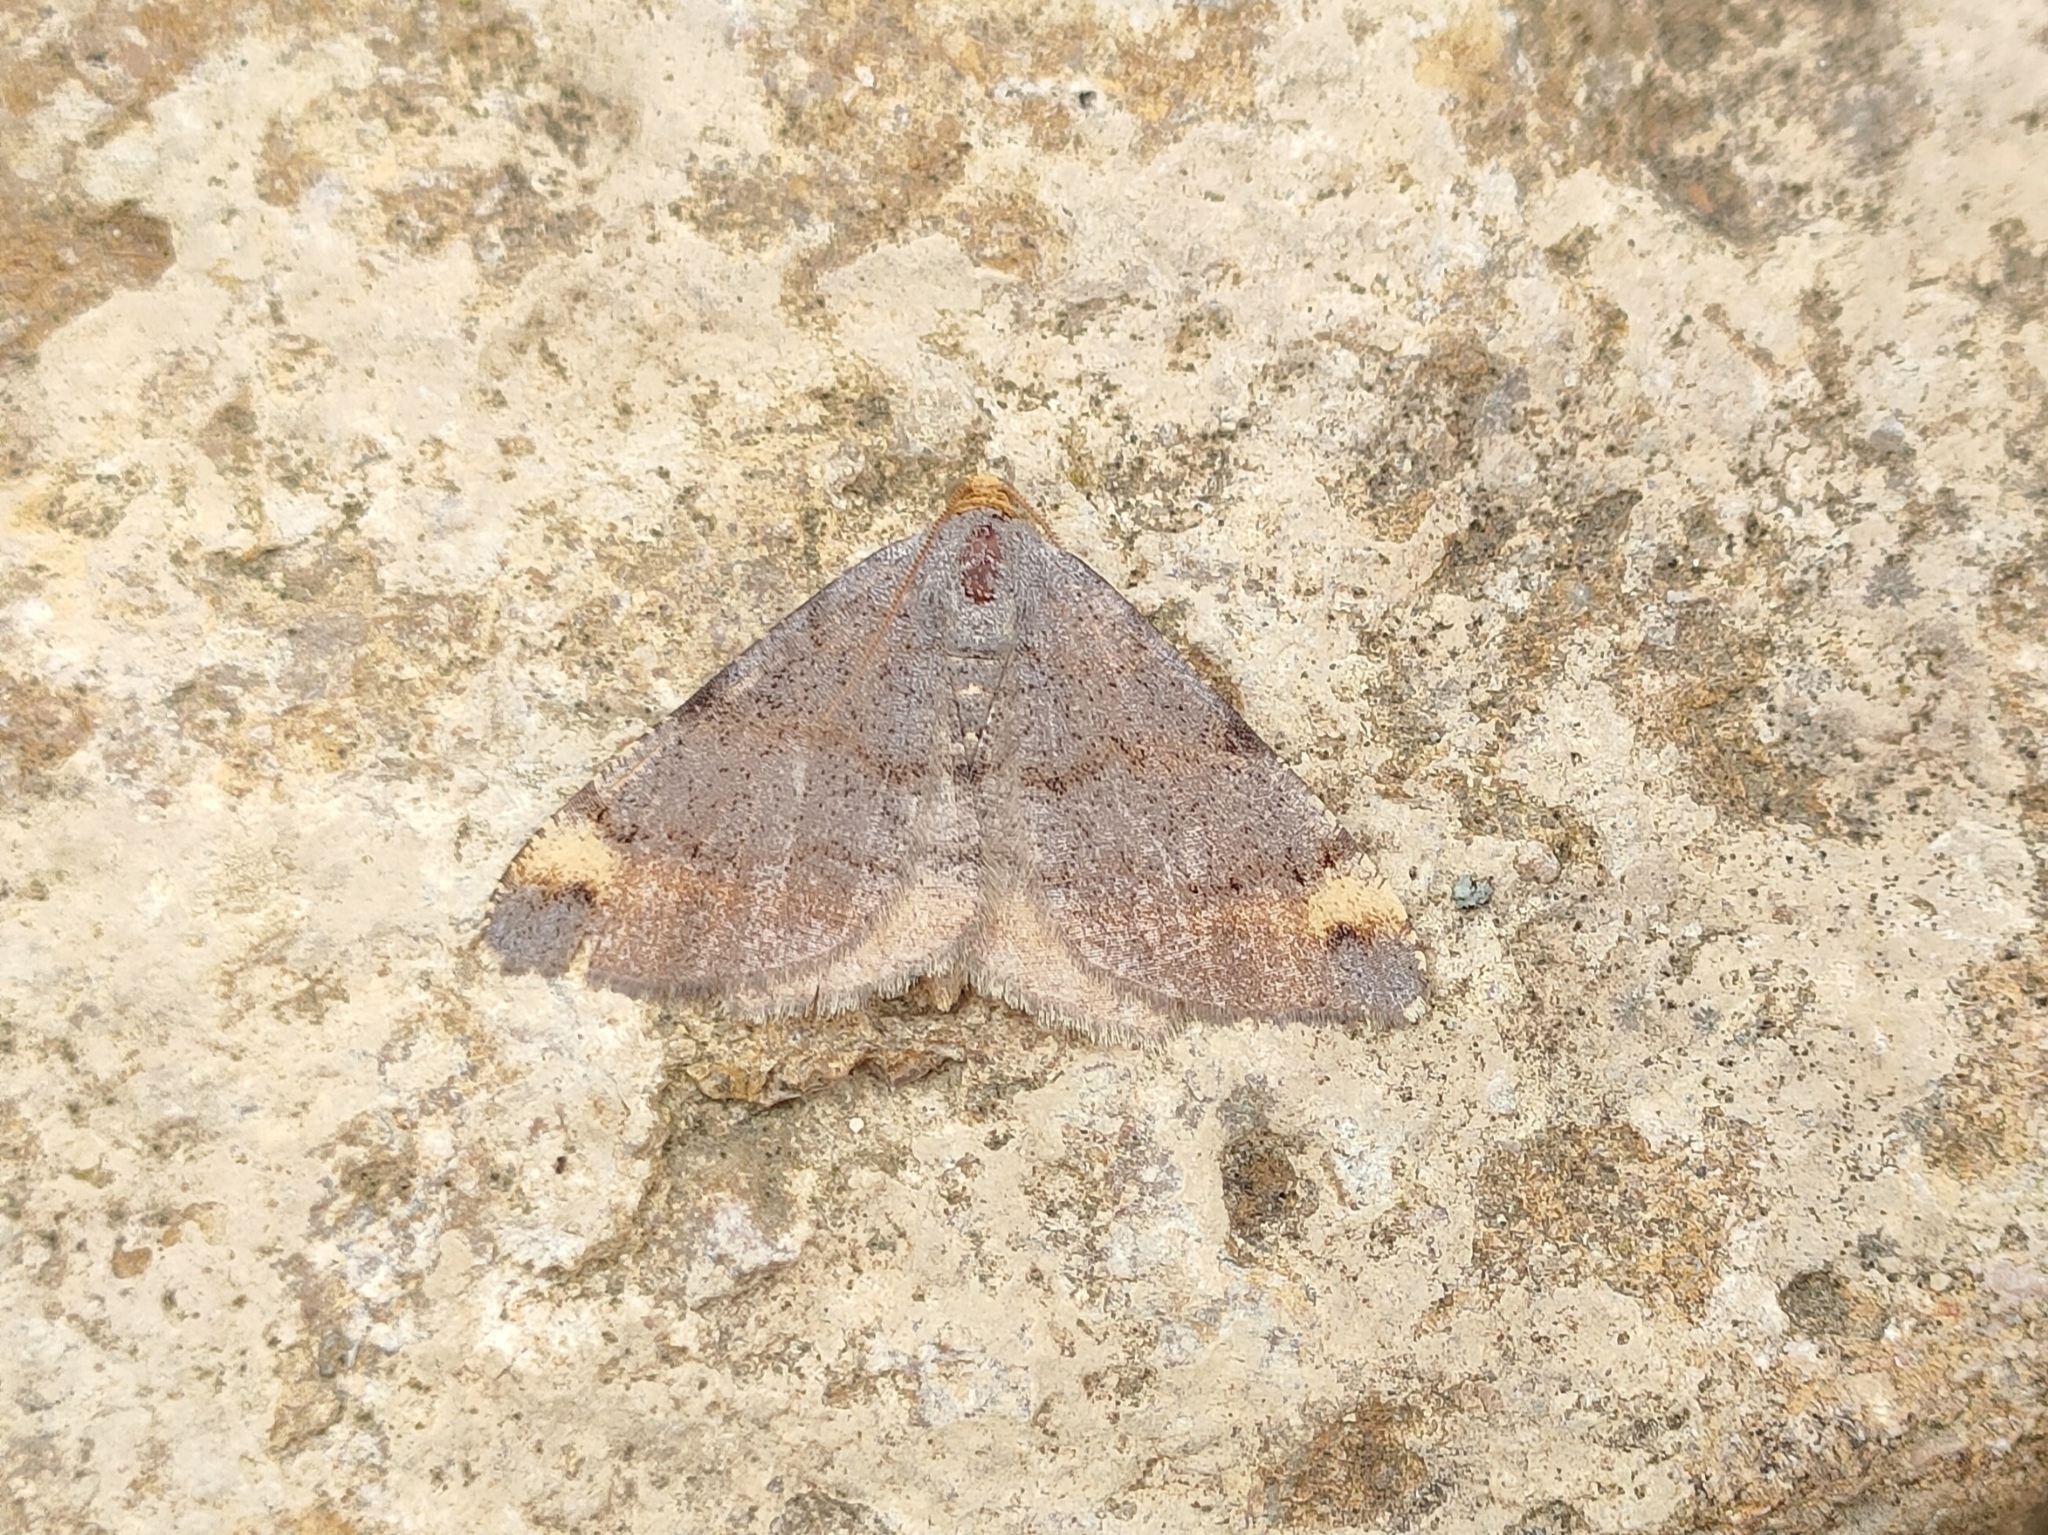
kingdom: Animalia
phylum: Arthropoda
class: Insecta
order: Lepidoptera
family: Geometridae
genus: Macaria
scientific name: Macaria liturata
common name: Tawny-barred angle
